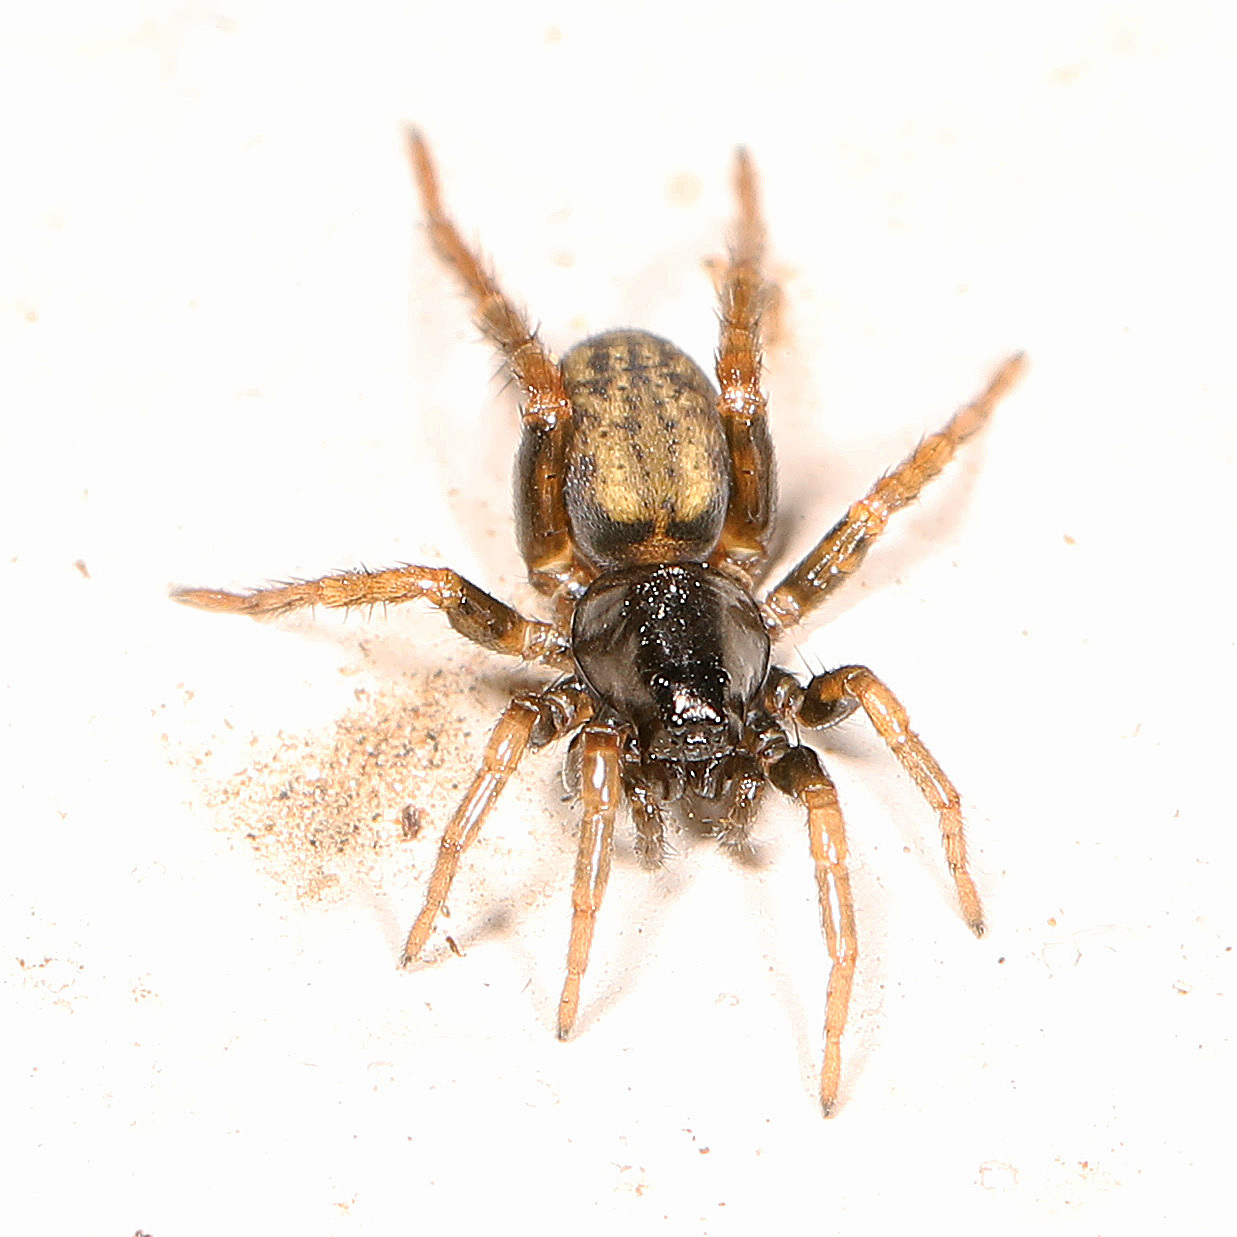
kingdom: Animalia
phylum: Arthropoda
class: Arachnida
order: Araneae
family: Lycosidae
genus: Allocosa
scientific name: Allocosa funerea
